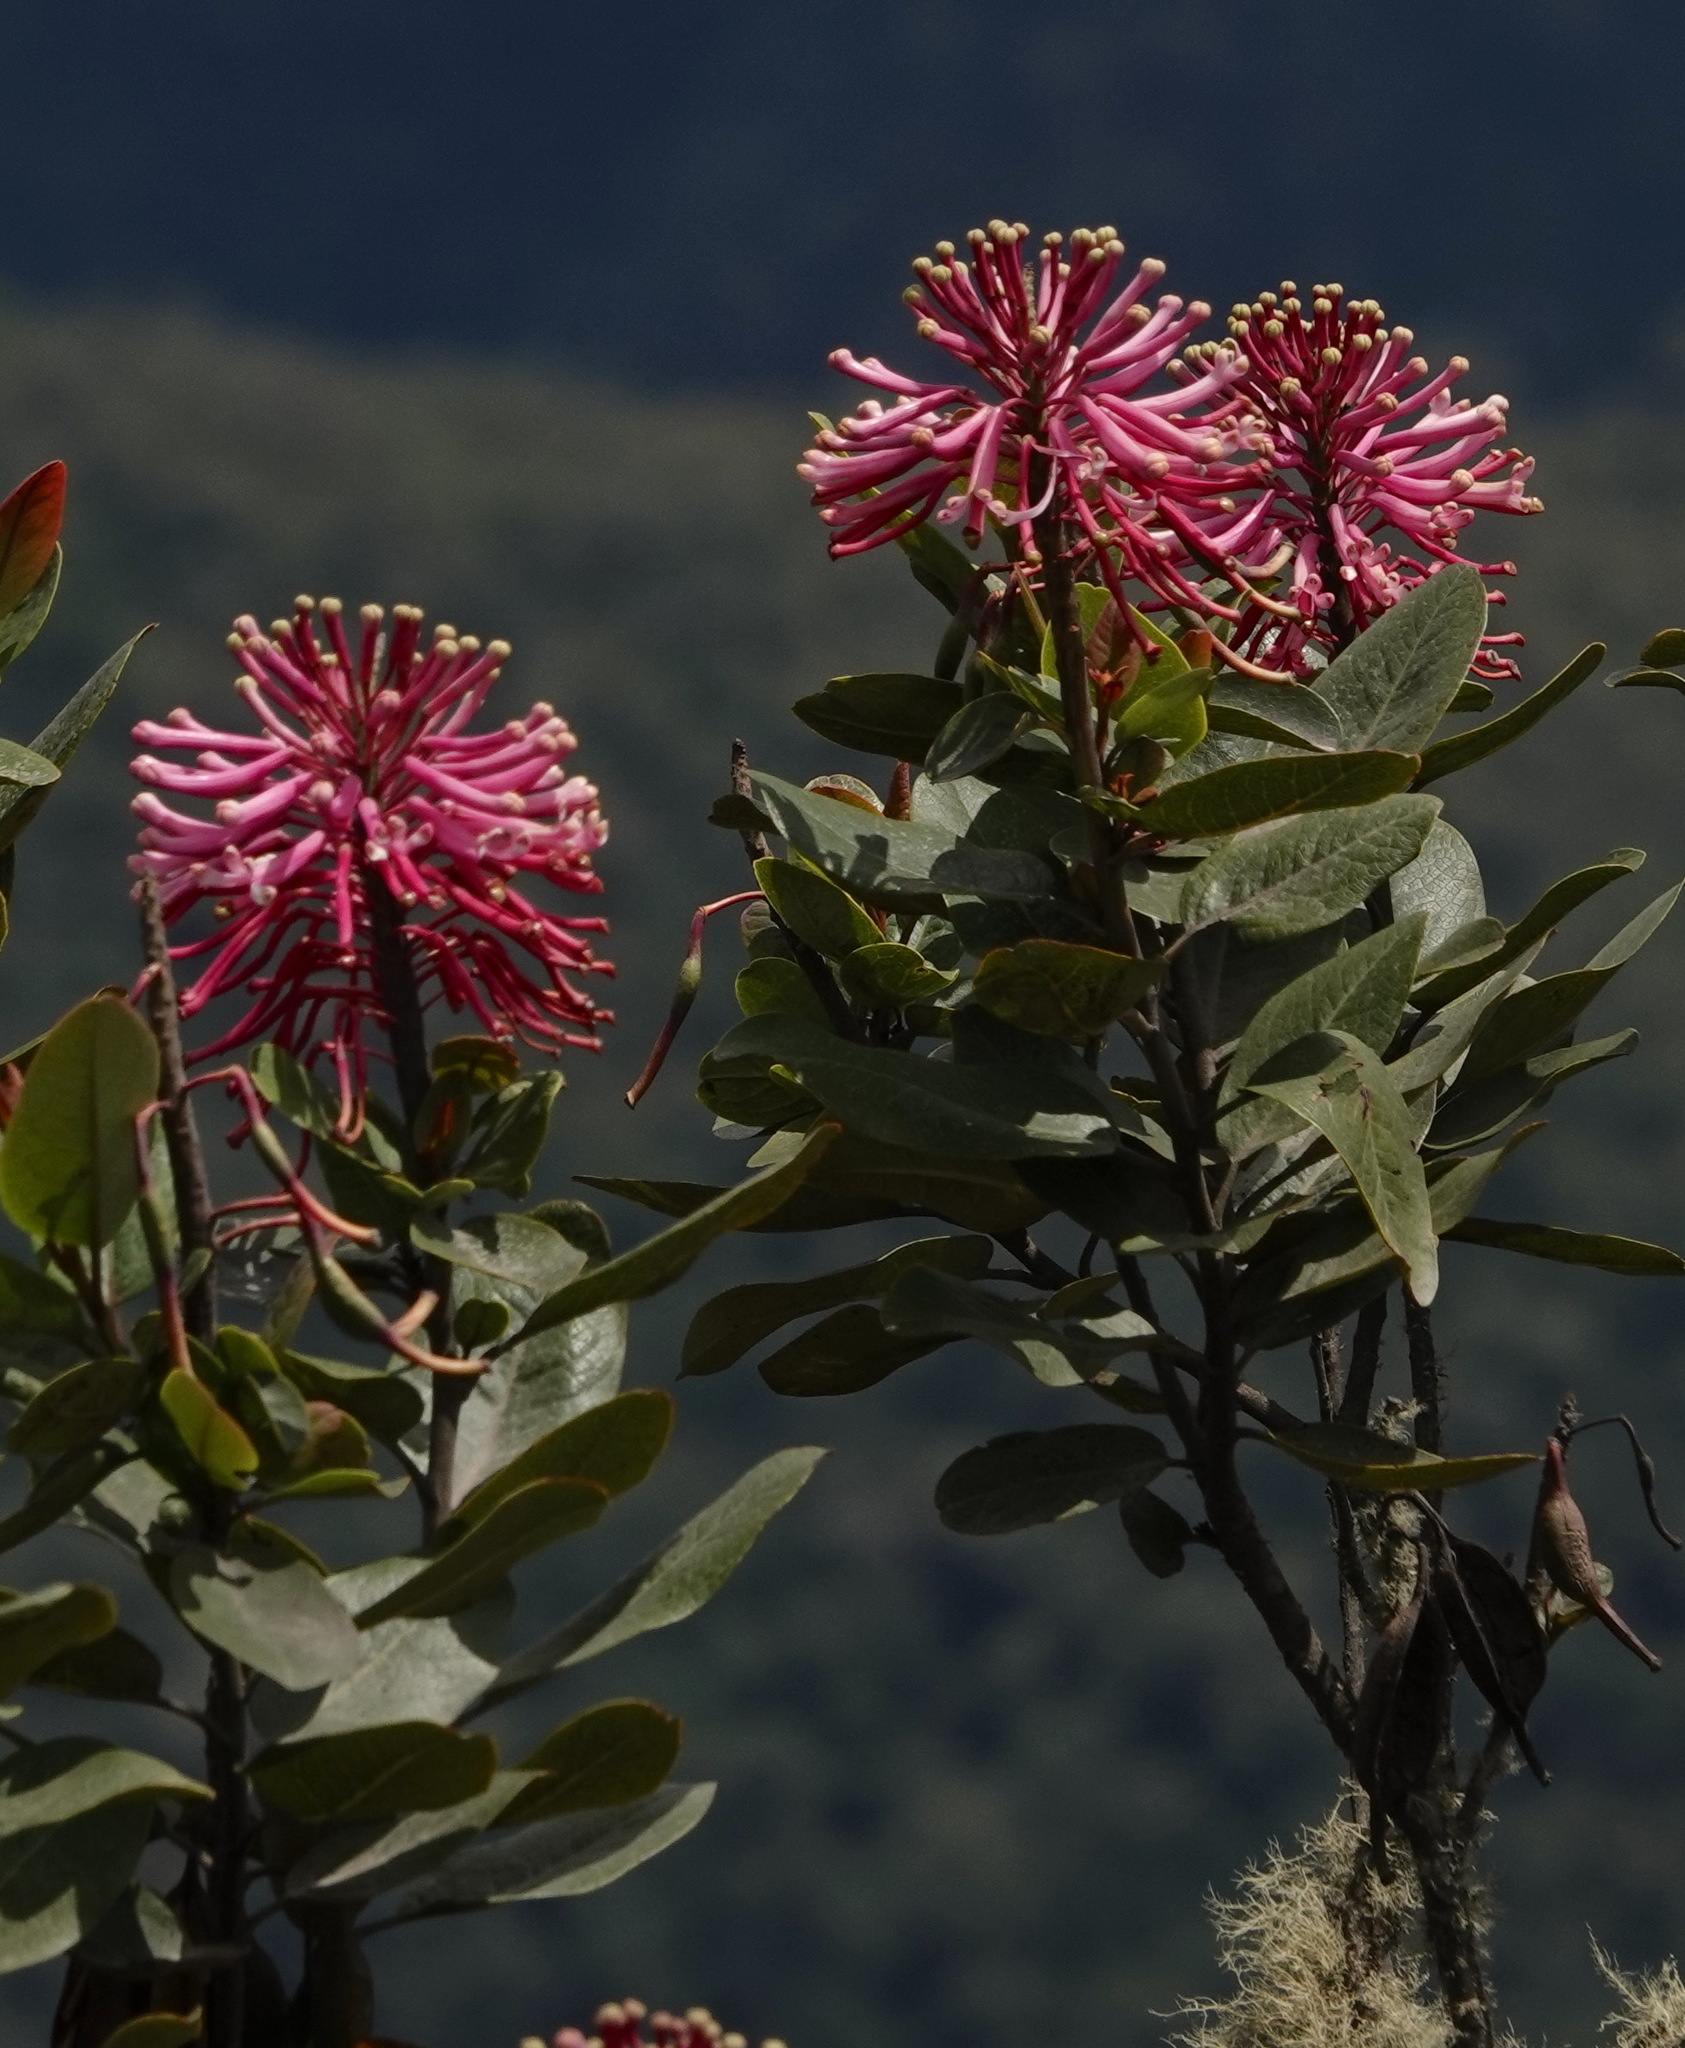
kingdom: Plantae
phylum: Tracheophyta
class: Magnoliopsida
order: Proteales
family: Proteaceae
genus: Oreocallis
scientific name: Oreocallis grandiflora
